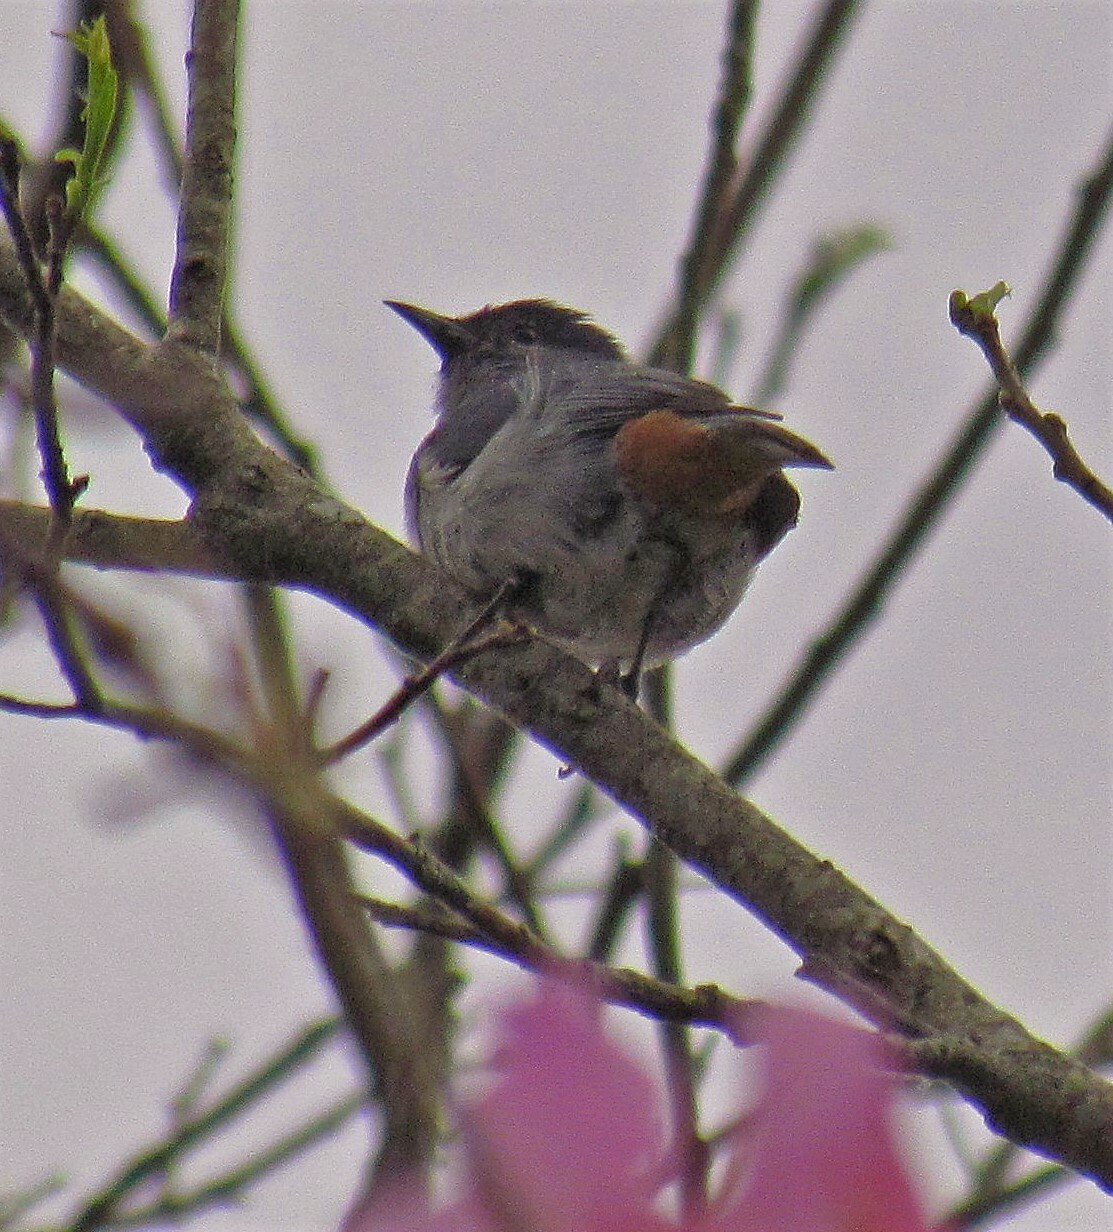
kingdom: Animalia
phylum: Chordata
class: Aves
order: Passeriformes
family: Thraupidae
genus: Conirostrum
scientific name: Conirostrum speciosum
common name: Chestnut-vented conebill
